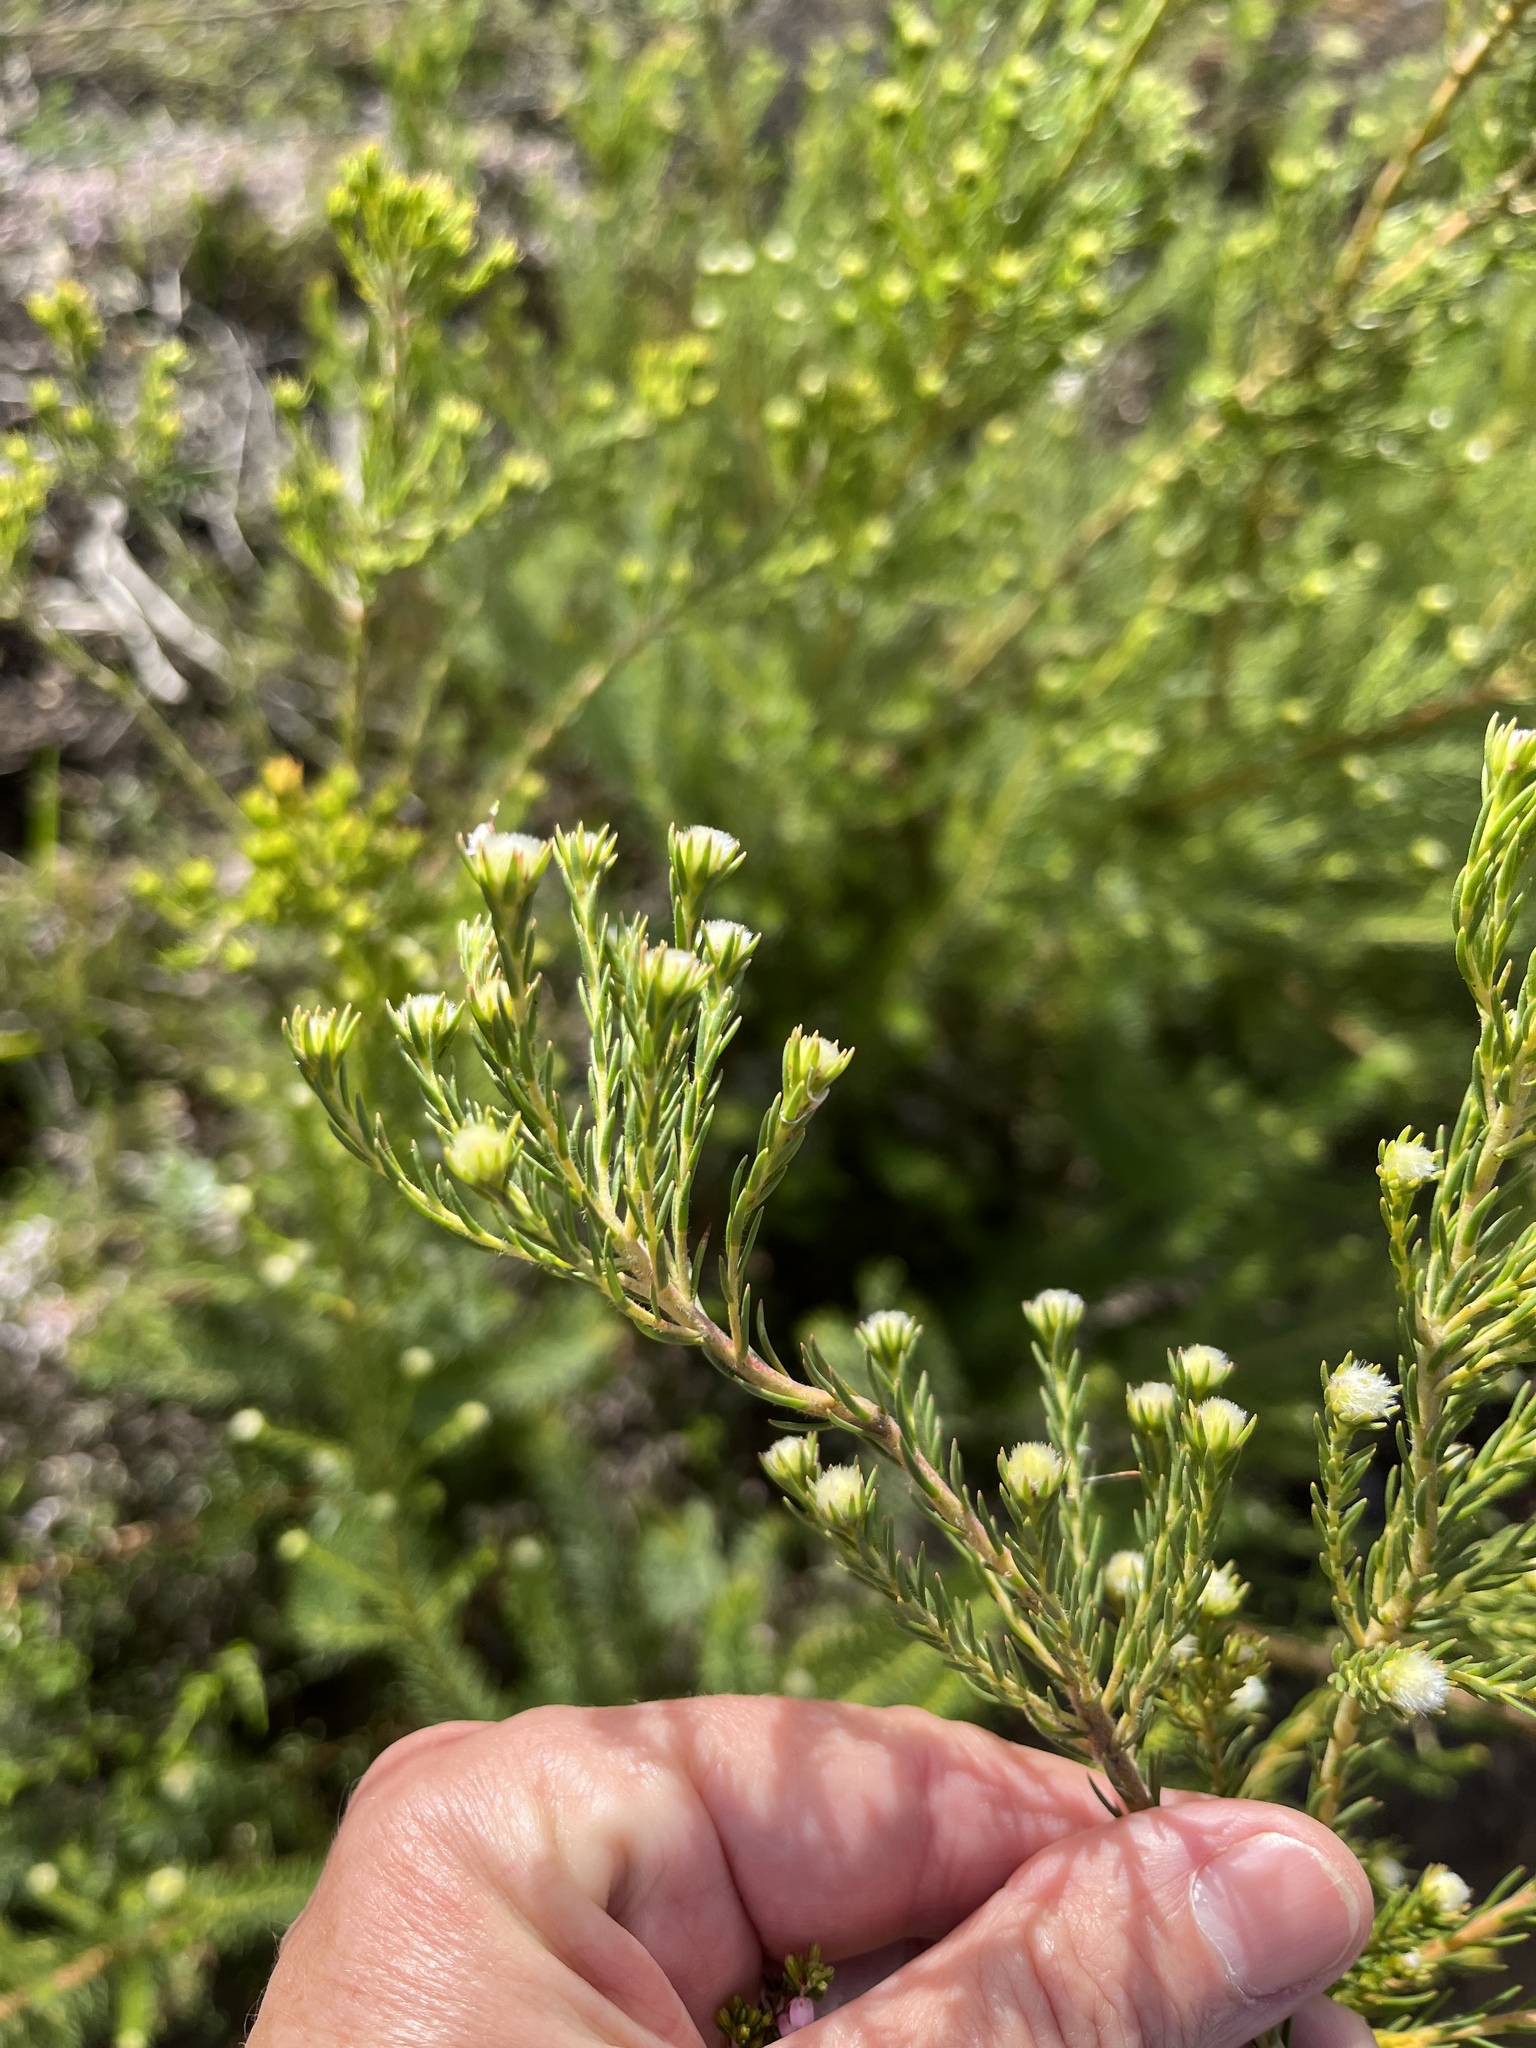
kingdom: Plantae
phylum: Tracheophyta
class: Magnoliopsida
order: Proteales
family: Proteaceae
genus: Leucadendron
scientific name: Leucadendron laxum
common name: Bredasdorp conebush
